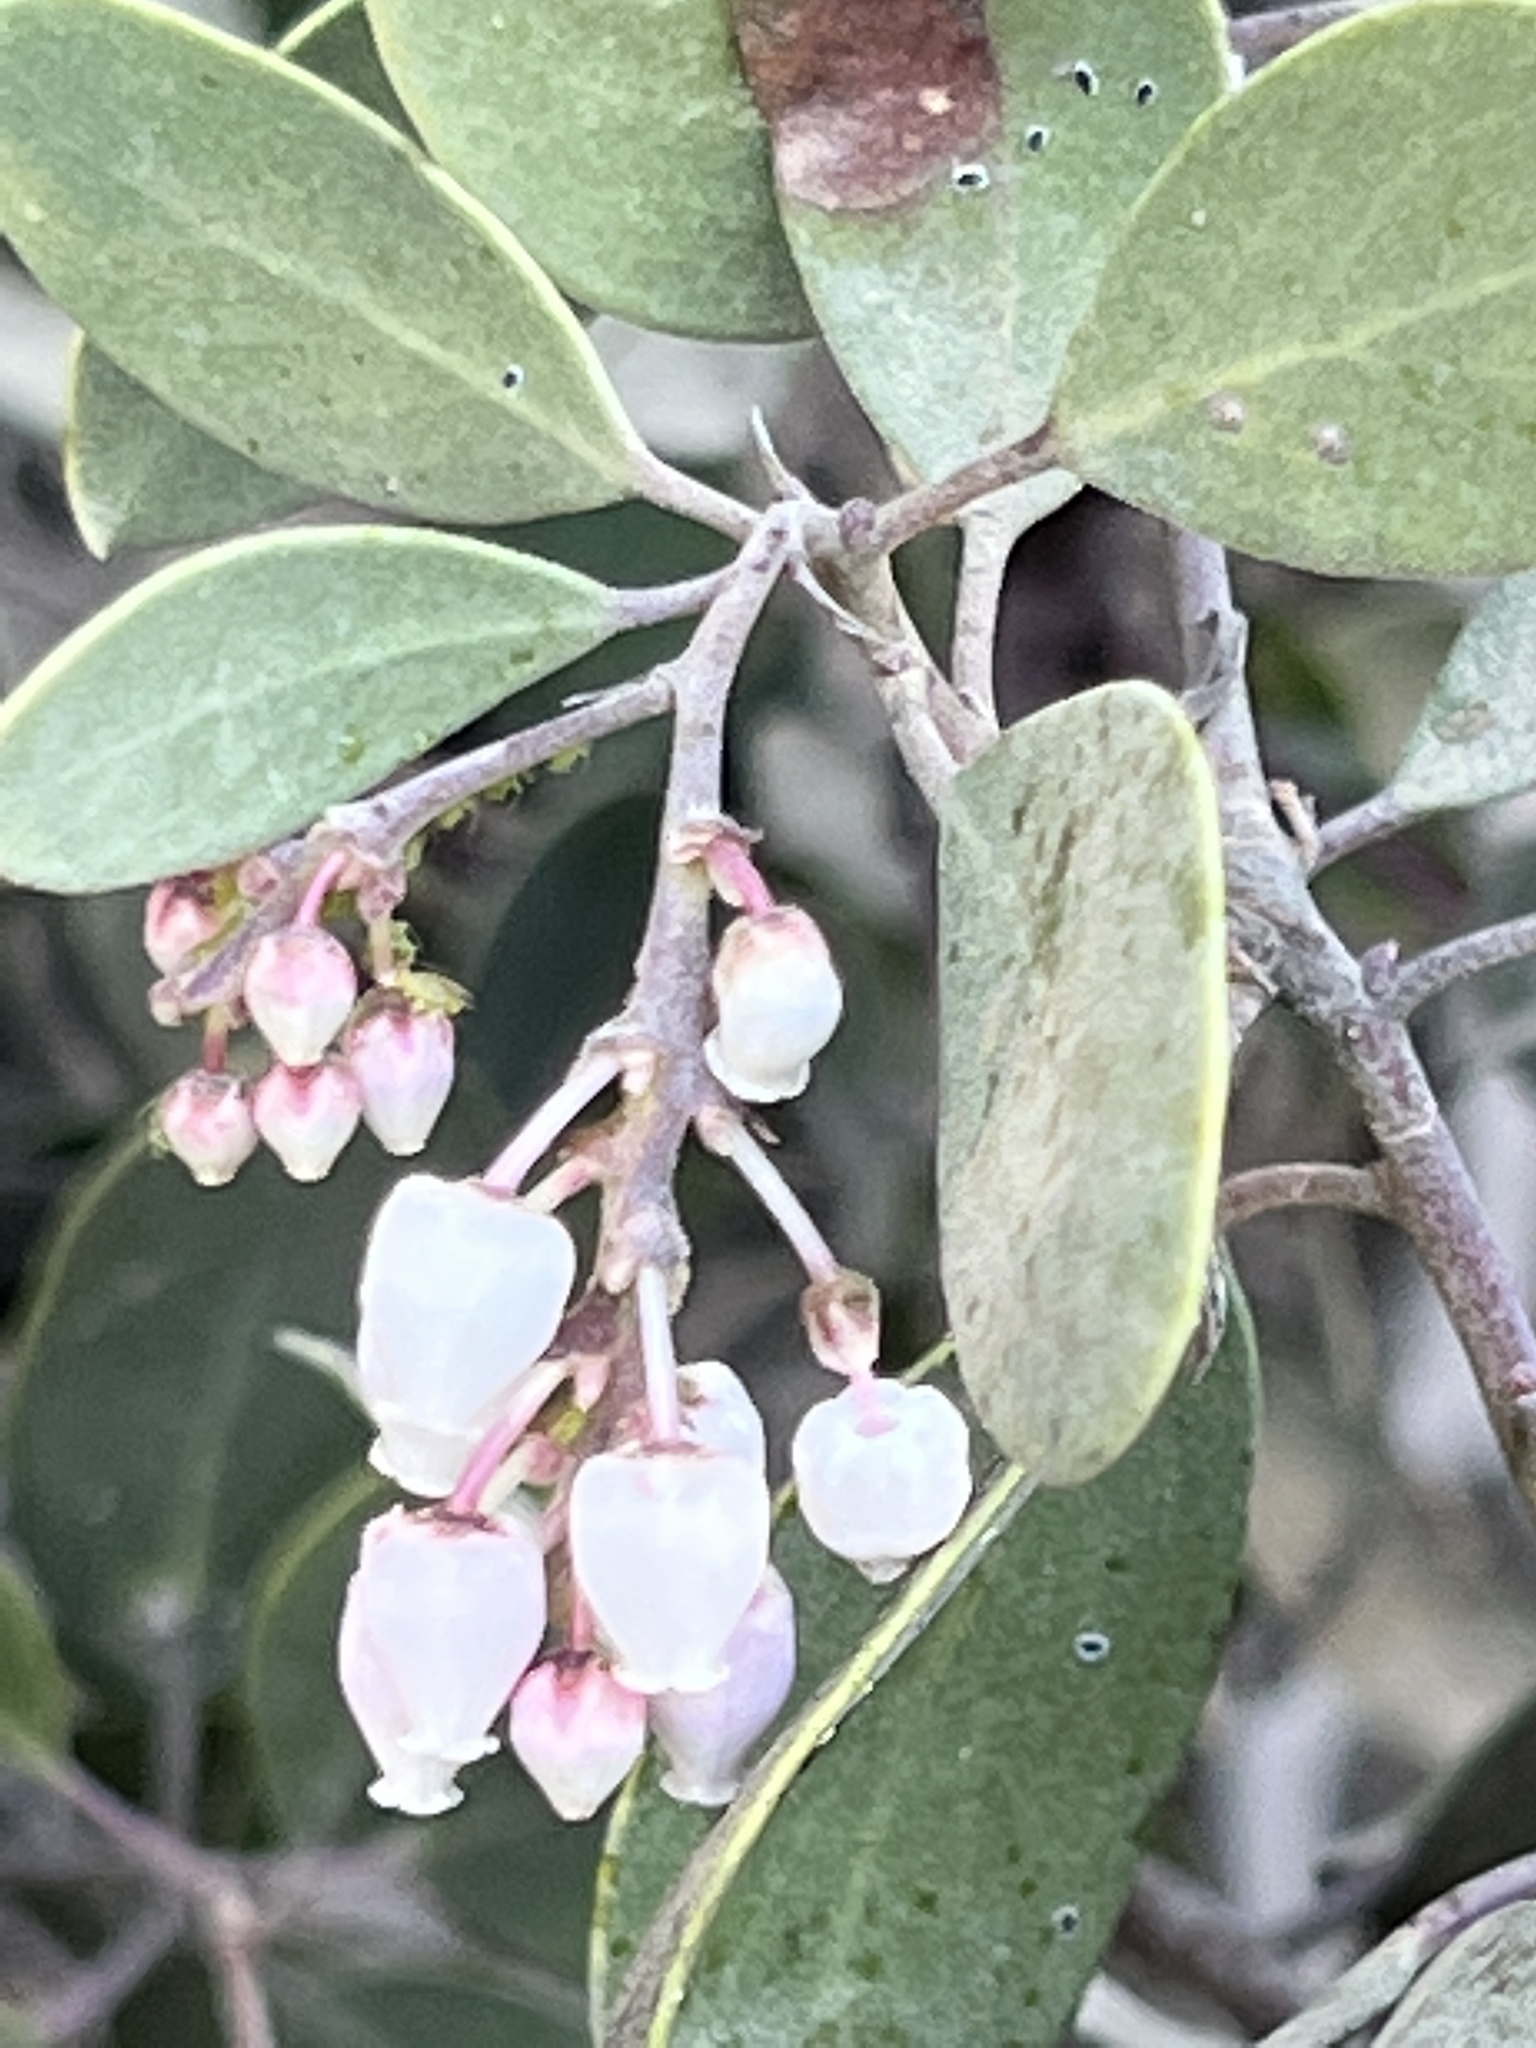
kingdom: Plantae
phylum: Tracheophyta
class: Magnoliopsida
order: Ericales
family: Ericaceae
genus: Arctostaphylos
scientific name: Arctostaphylos manzanita
